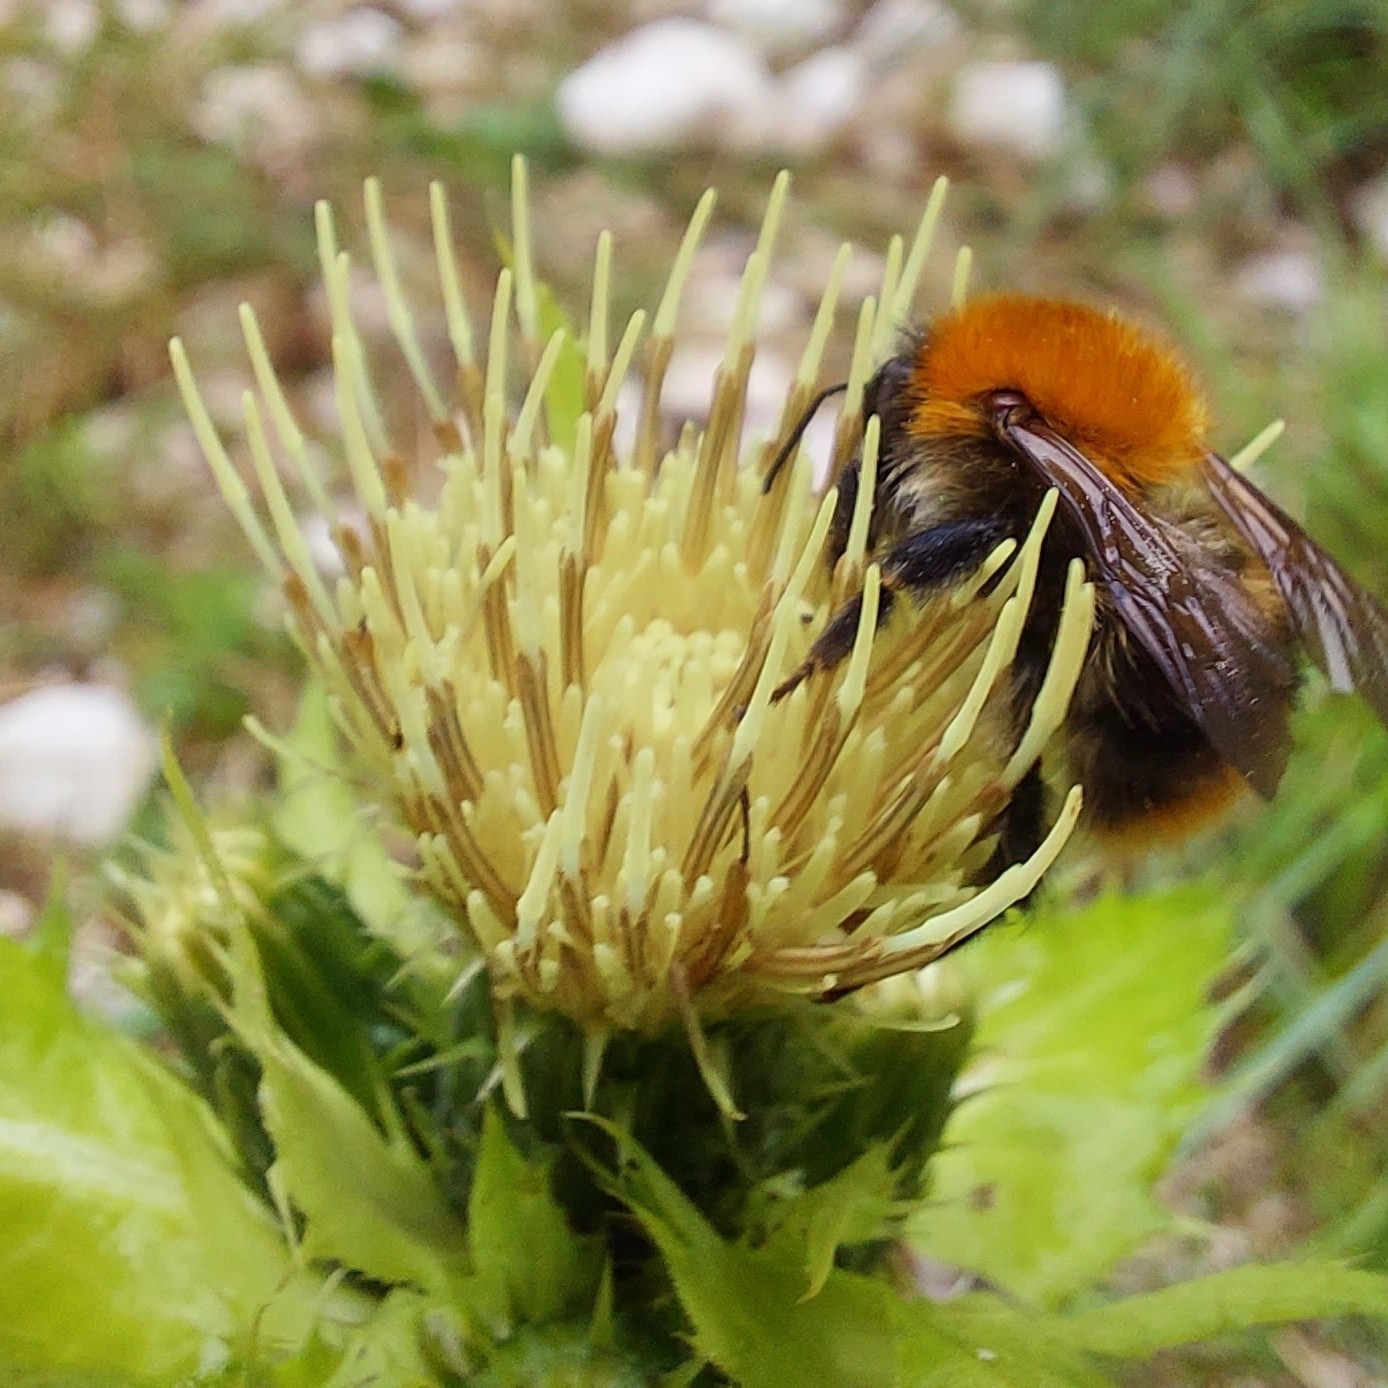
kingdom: Plantae
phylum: Tracheophyta
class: Magnoliopsida
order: Asterales
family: Asteraceae
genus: Cirsium
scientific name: Cirsium oleraceum
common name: Cabbage thistle
